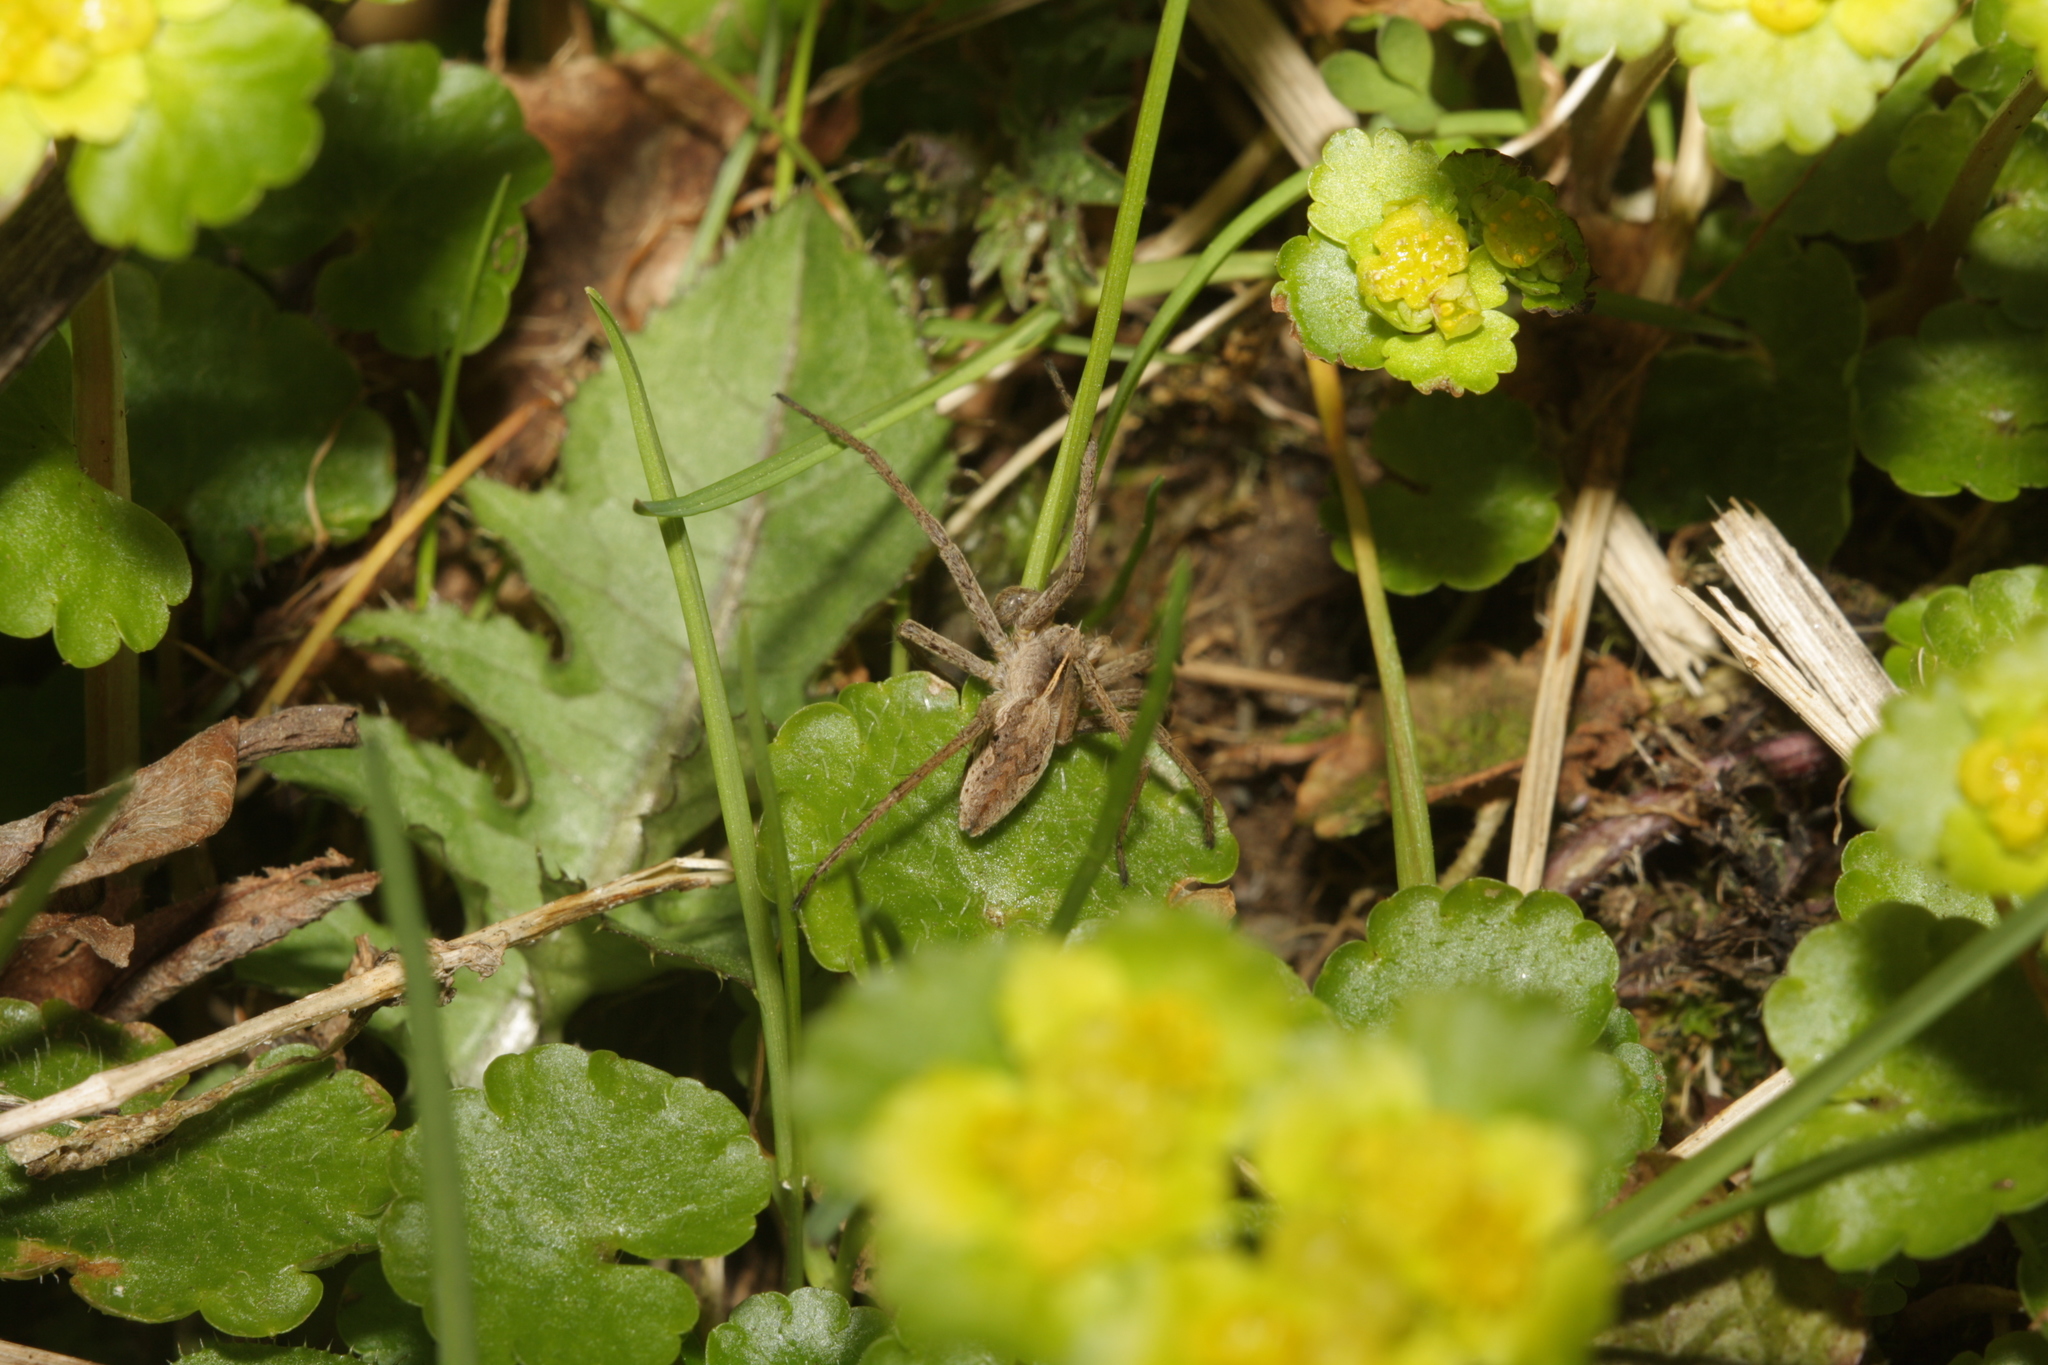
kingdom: Animalia
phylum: Arthropoda
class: Arachnida
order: Araneae
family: Pisauridae
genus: Pisaura
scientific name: Pisaura mirabilis
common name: Tent spider
